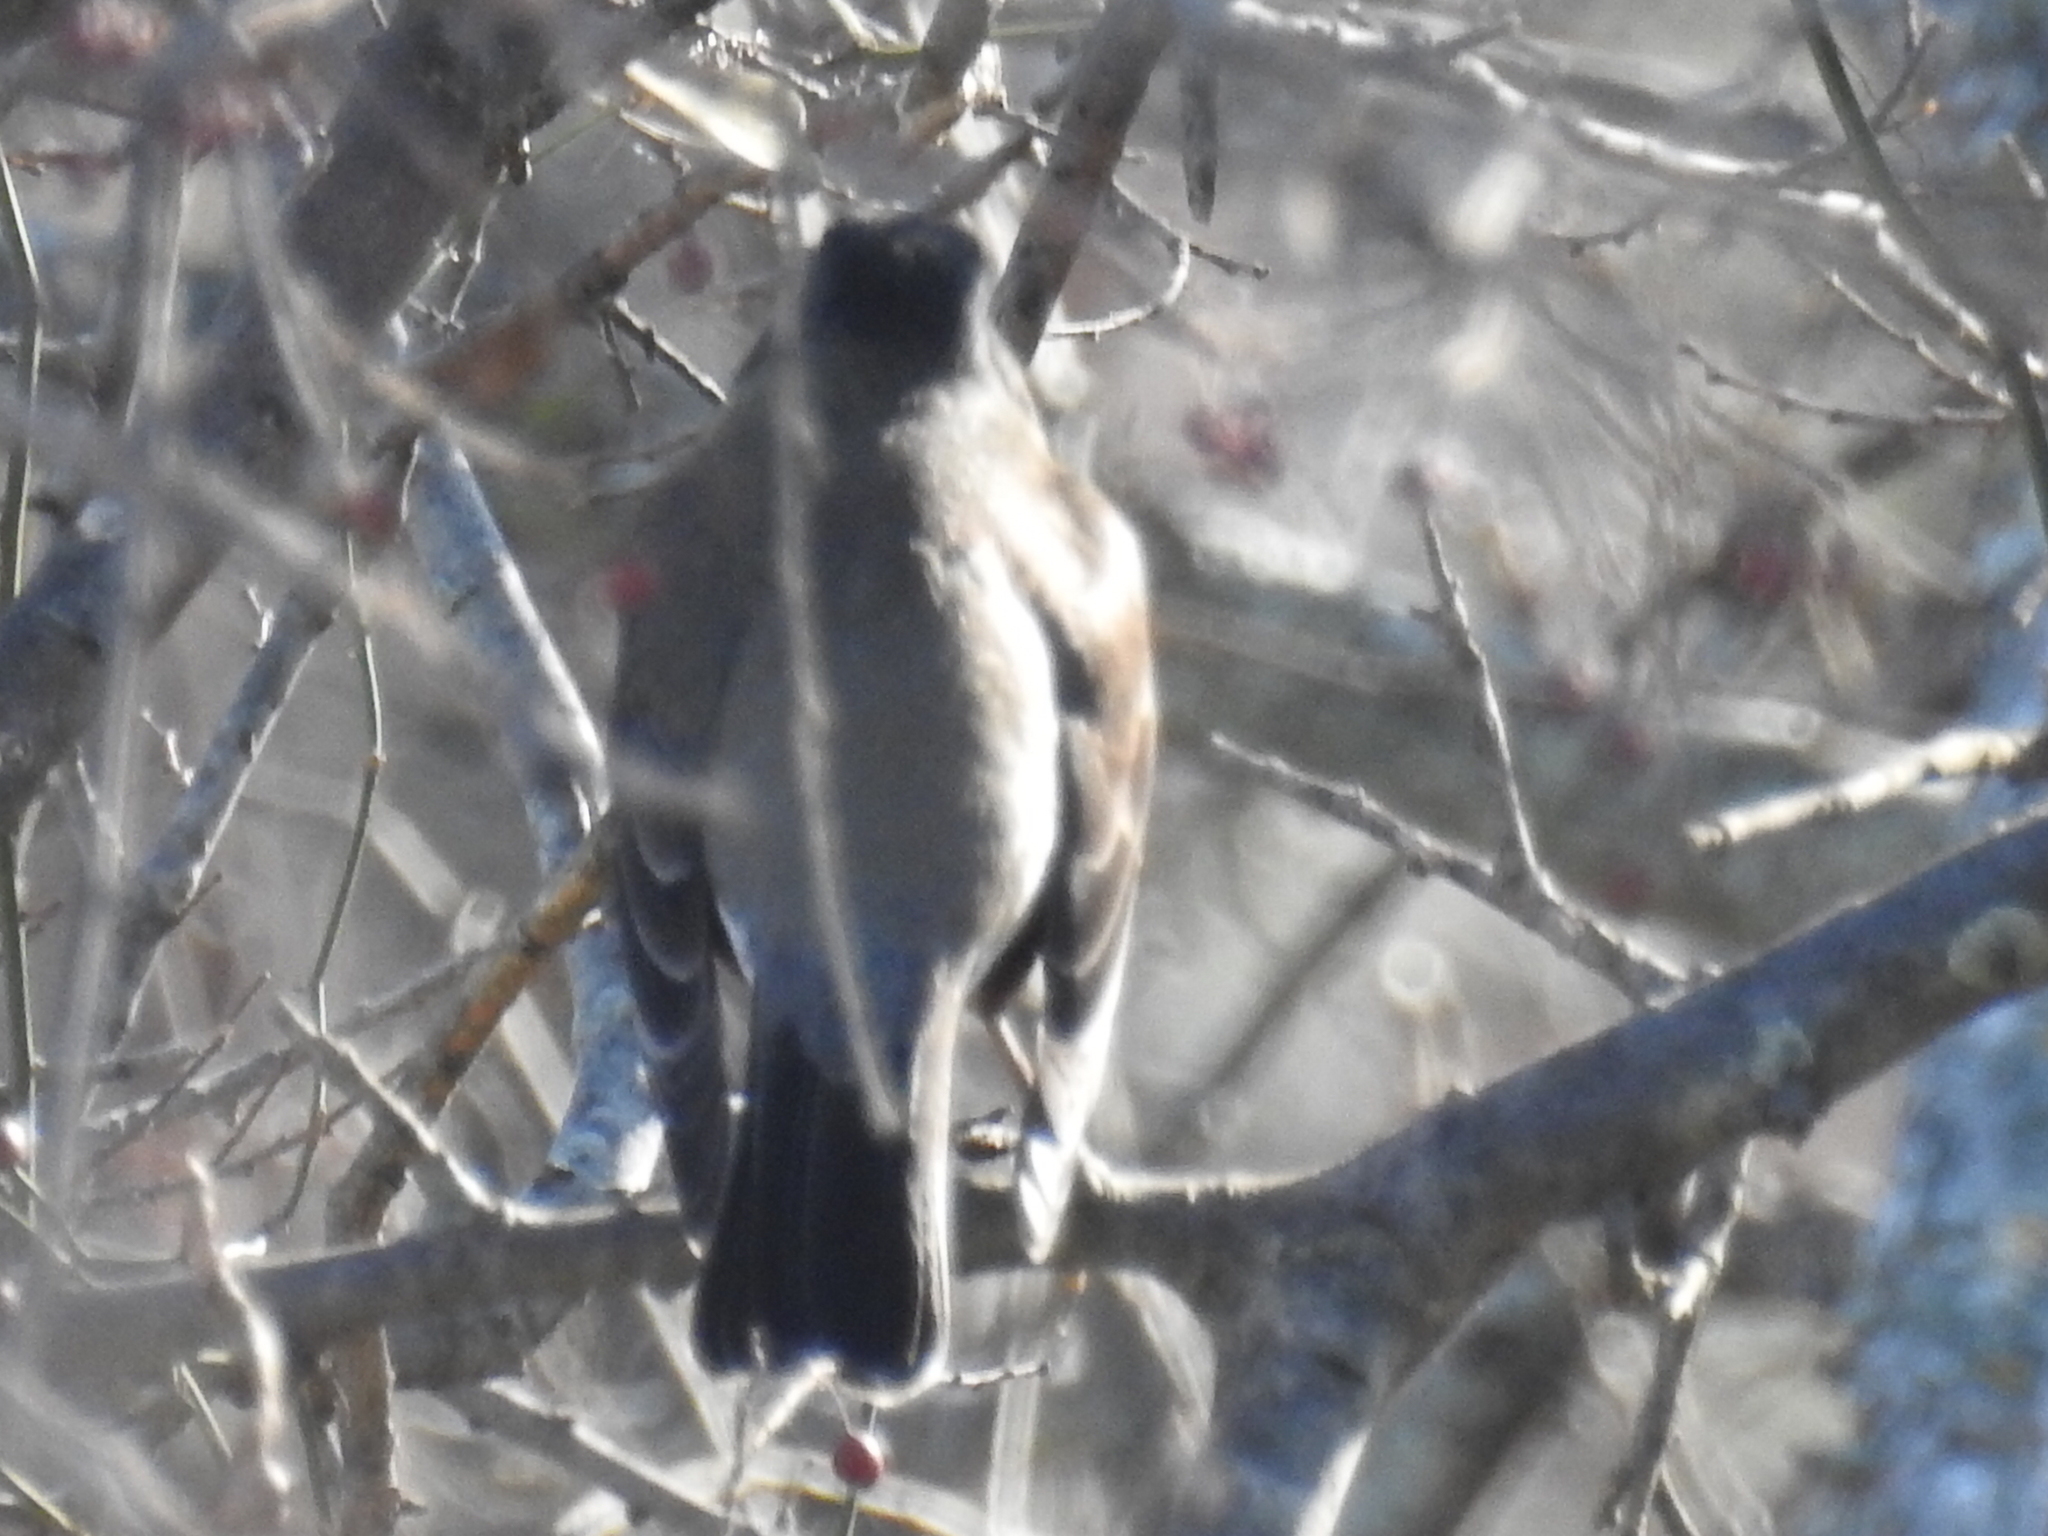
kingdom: Animalia
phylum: Chordata
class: Aves
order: Passeriformes
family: Turdidae
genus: Turdus
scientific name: Turdus migratorius
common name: American robin
